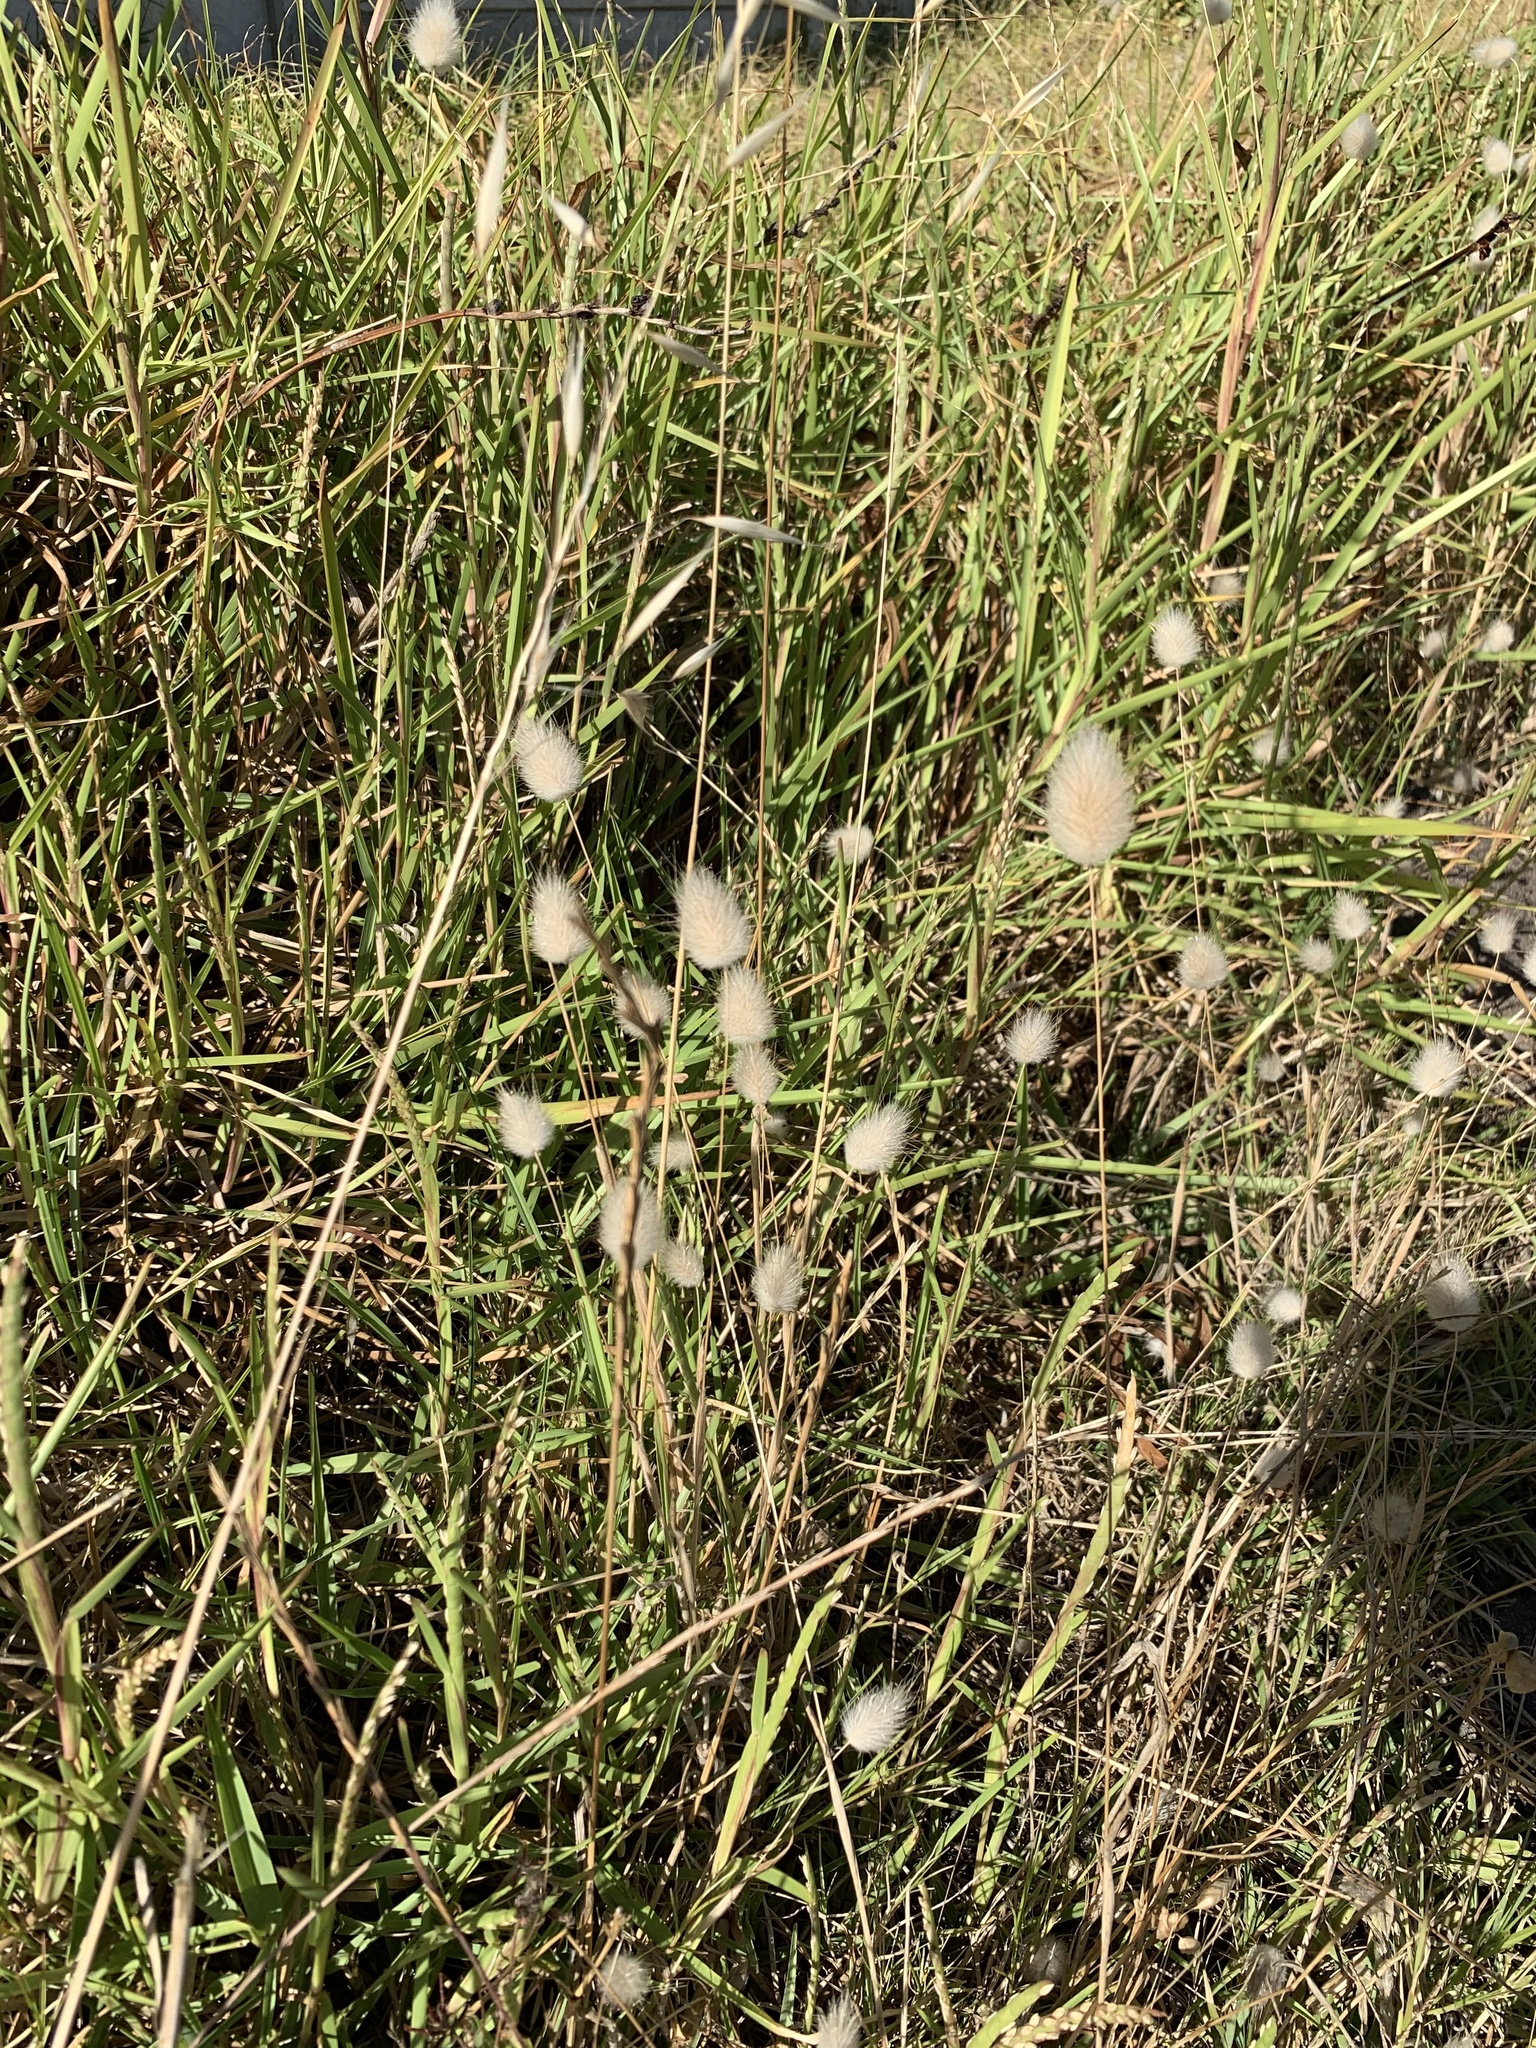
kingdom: Plantae
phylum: Tracheophyta
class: Liliopsida
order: Poales
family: Poaceae
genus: Lagurus
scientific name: Lagurus ovatus
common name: Hare's-tail
